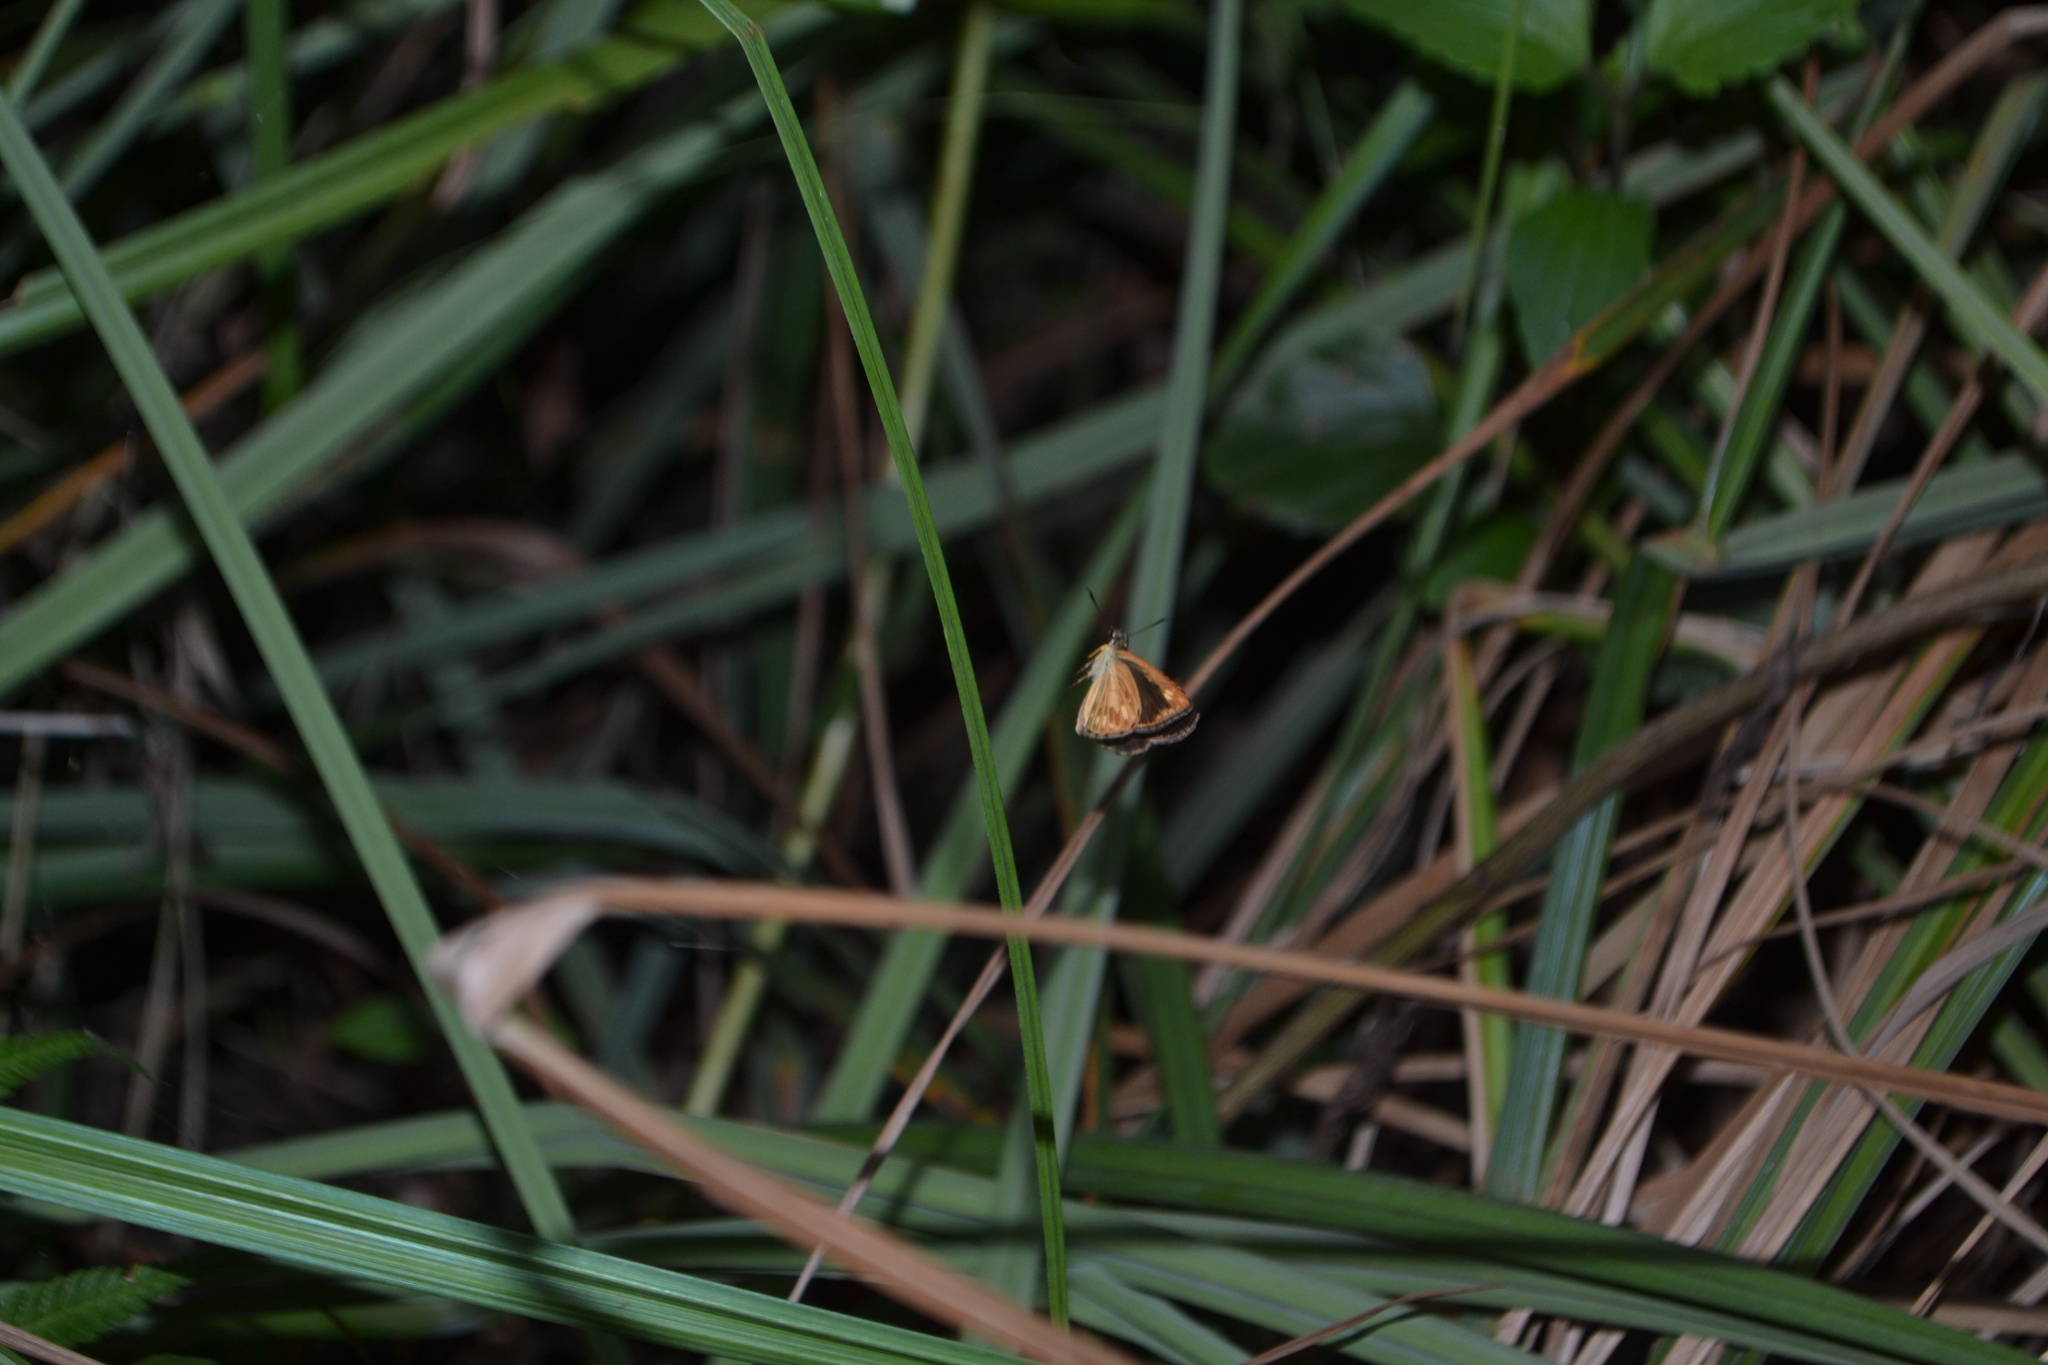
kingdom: Animalia
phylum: Arthropoda
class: Insecta
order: Lepidoptera
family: Hesperiidae
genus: Baracus
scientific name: Baracus vittatus
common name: Hedge-hopper
